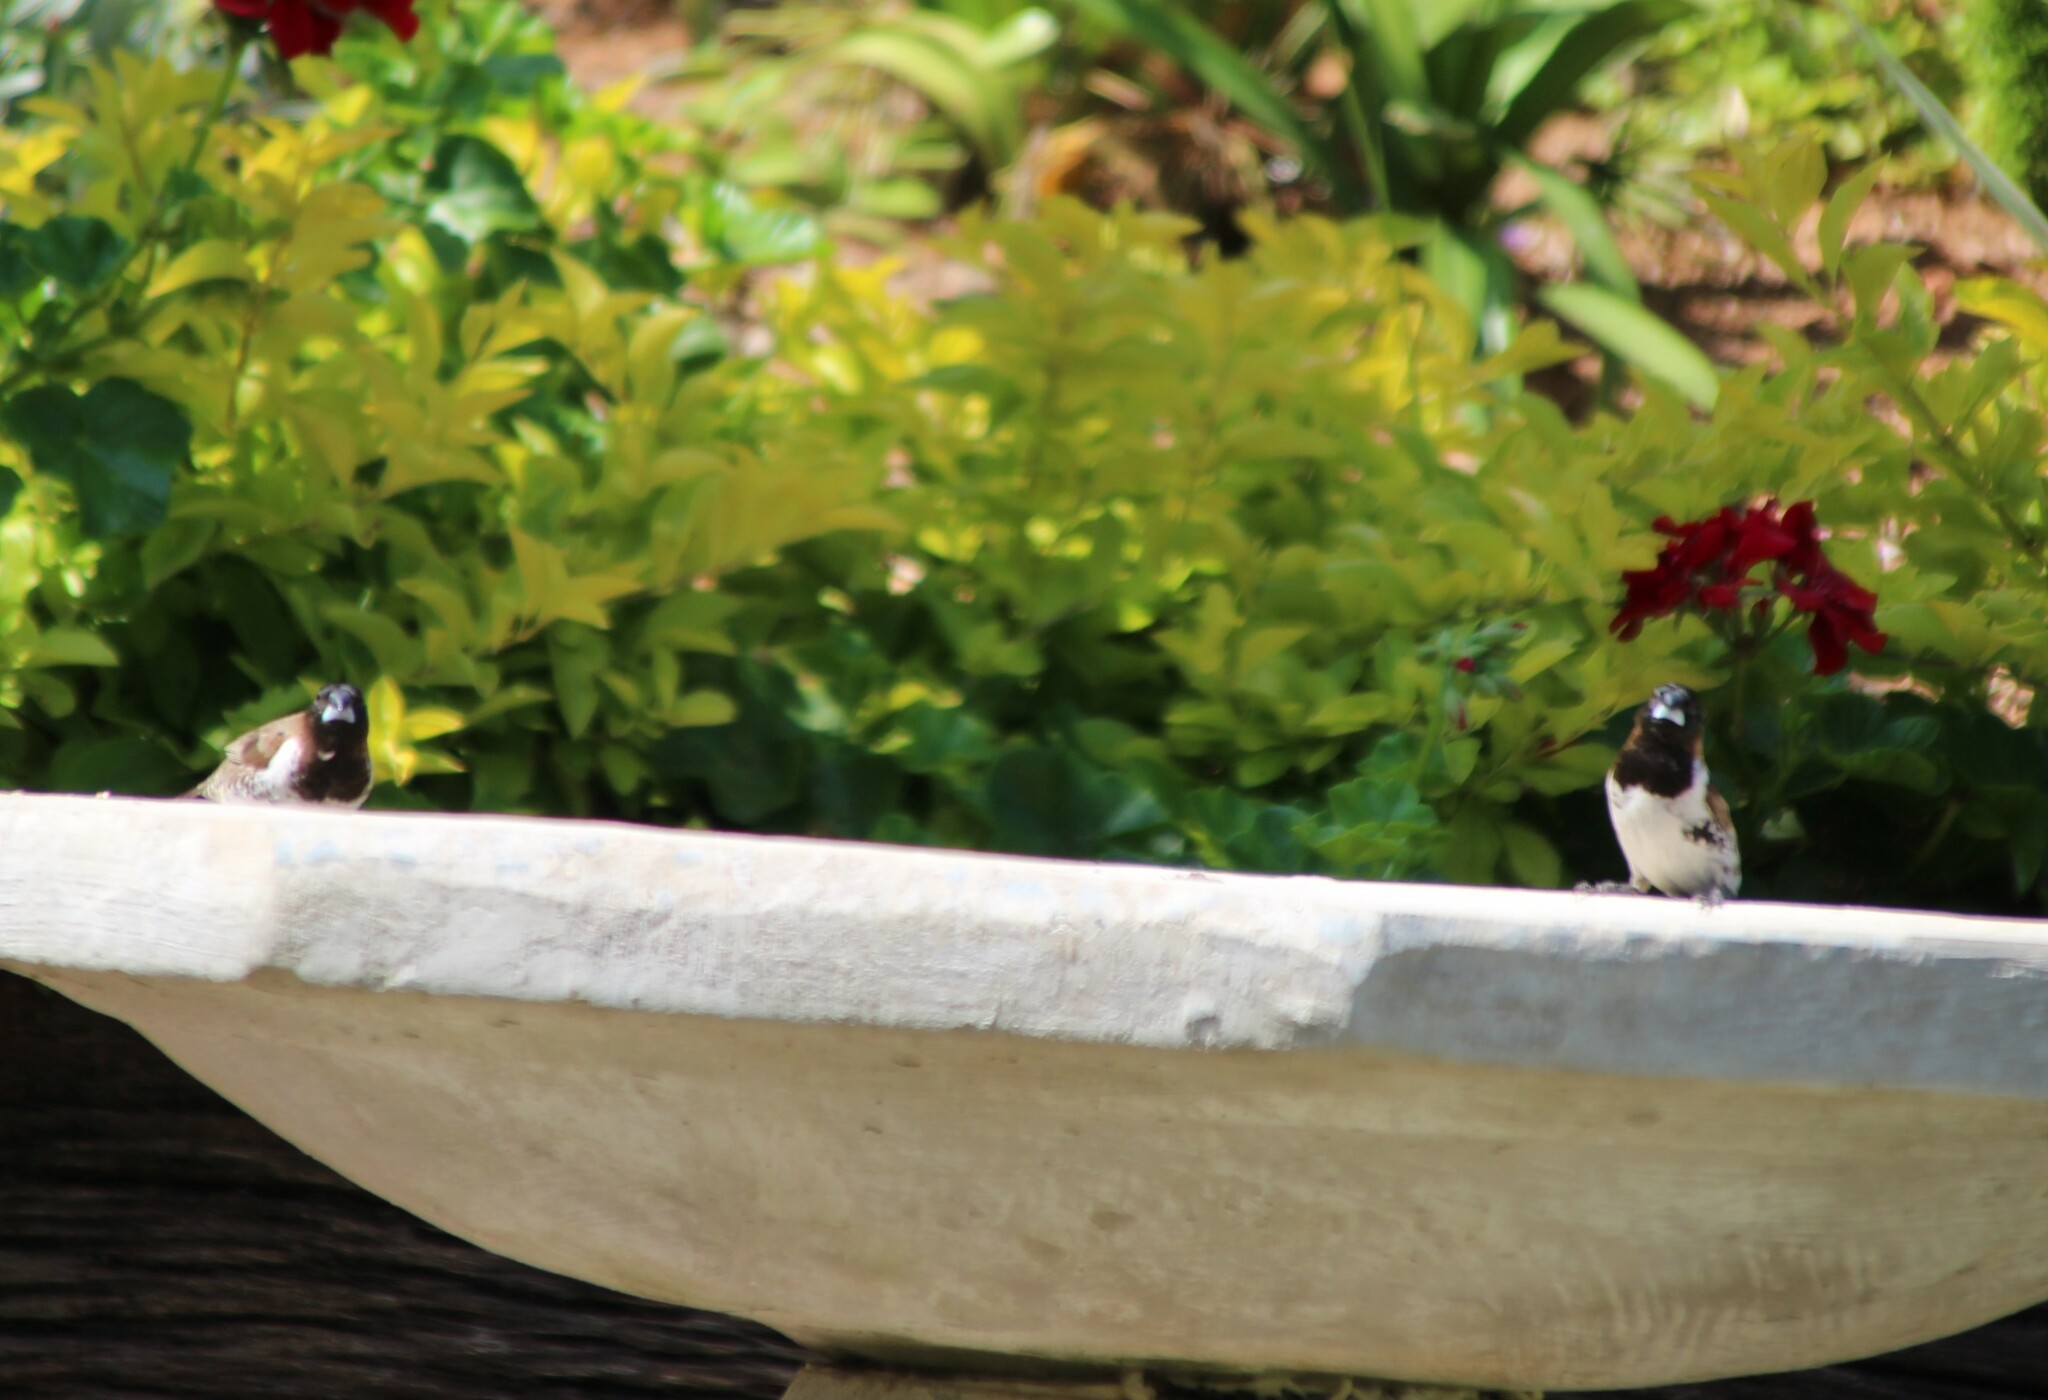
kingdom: Animalia
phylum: Chordata
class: Aves
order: Passeriformes
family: Estrildidae
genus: Lonchura
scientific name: Lonchura cucullata
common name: Bronze mannikin
